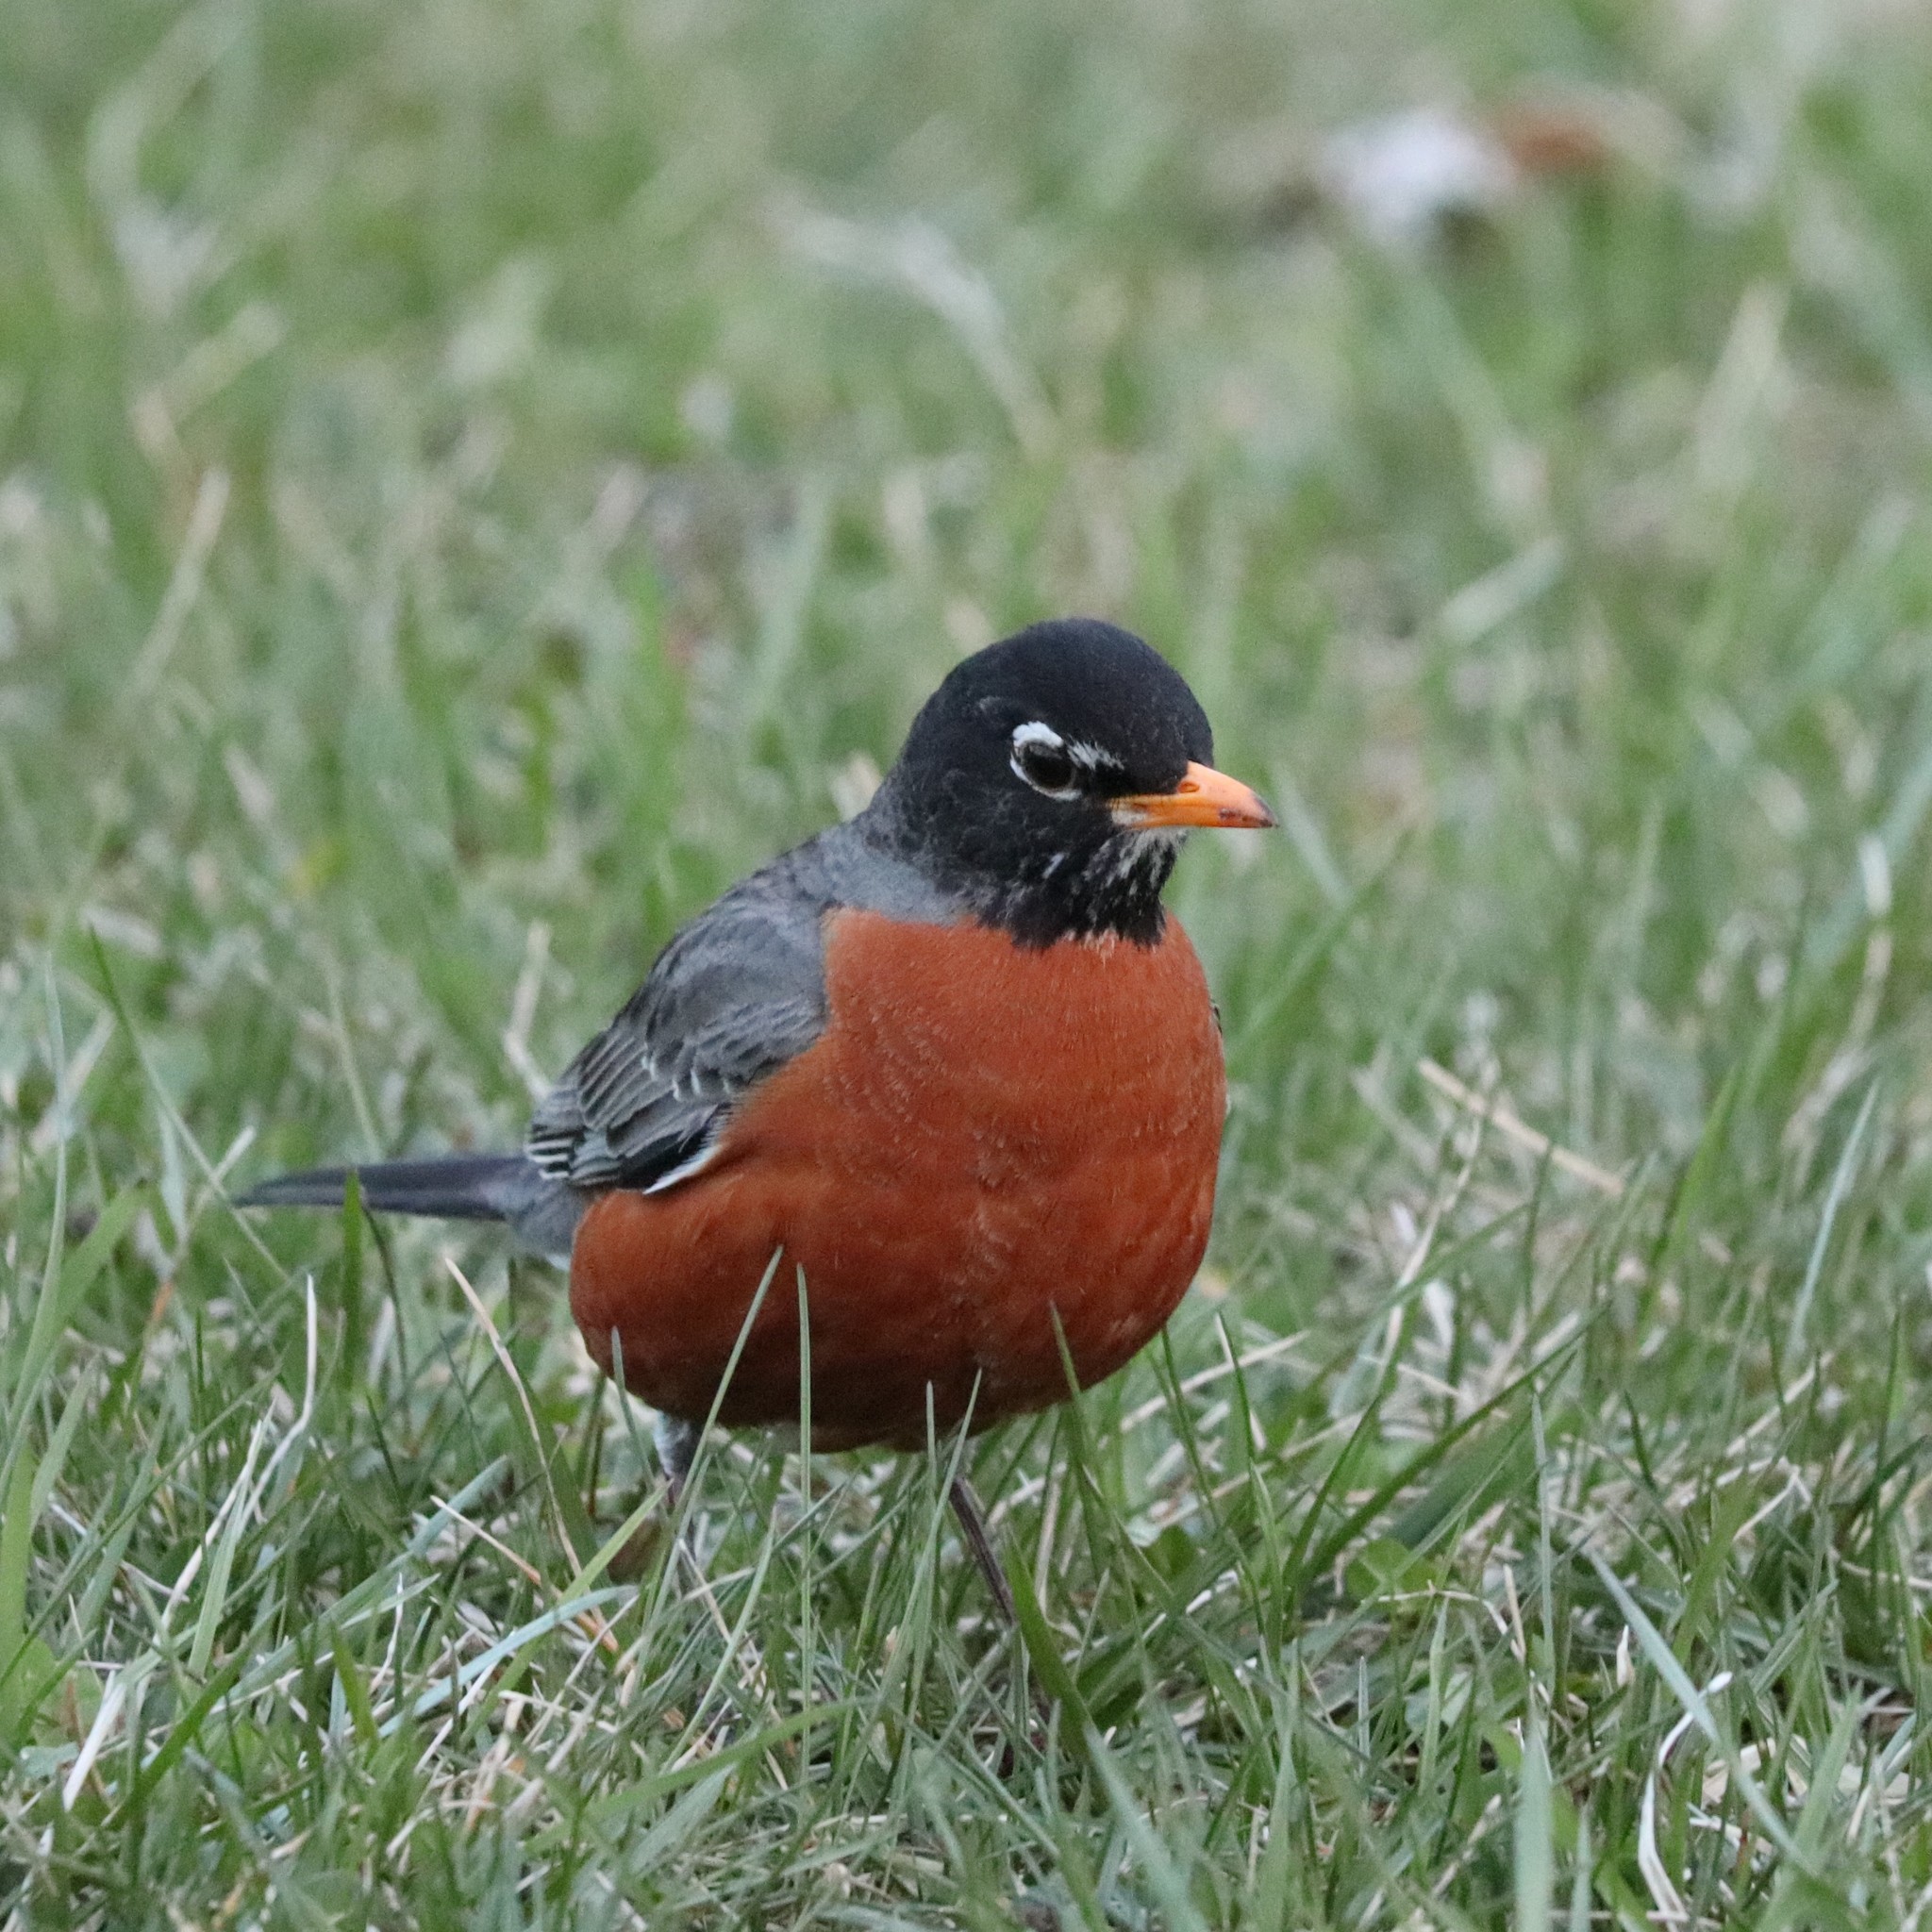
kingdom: Animalia
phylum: Chordata
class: Aves
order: Passeriformes
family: Turdidae
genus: Turdus
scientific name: Turdus migratorius
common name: American robin
